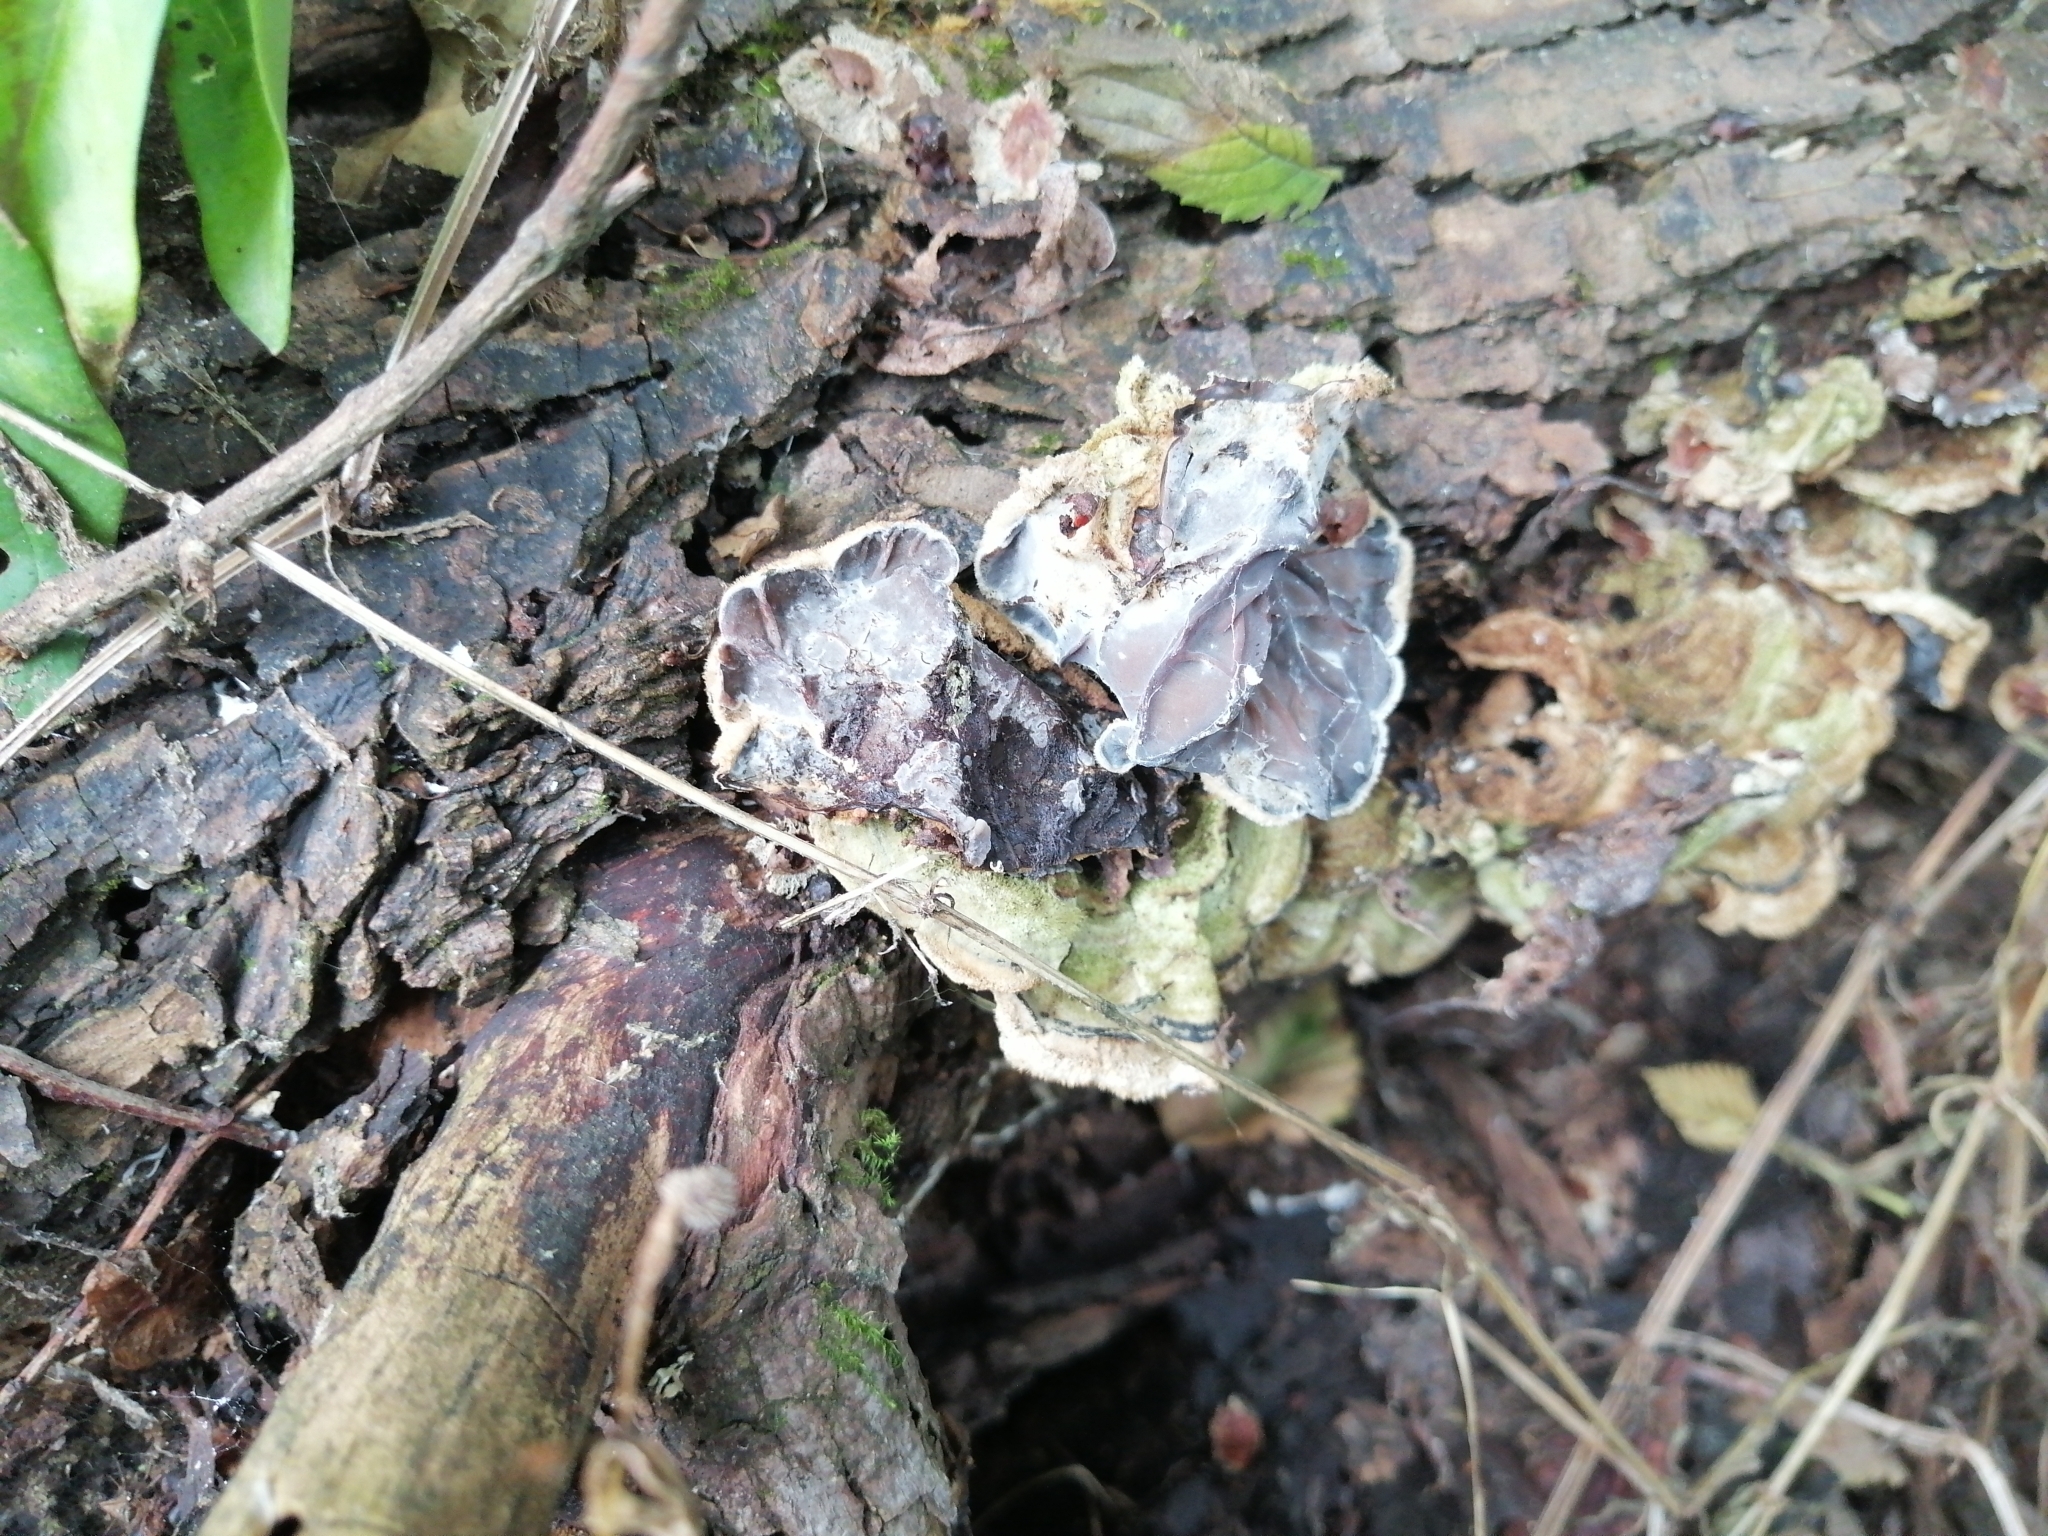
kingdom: Fungi
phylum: Basidiomycota
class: Agaricomycetes
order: Auriculariales
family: Auriculariaceae
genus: Auricularia
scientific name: Auricularia mesenterica
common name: Tripe fungus
